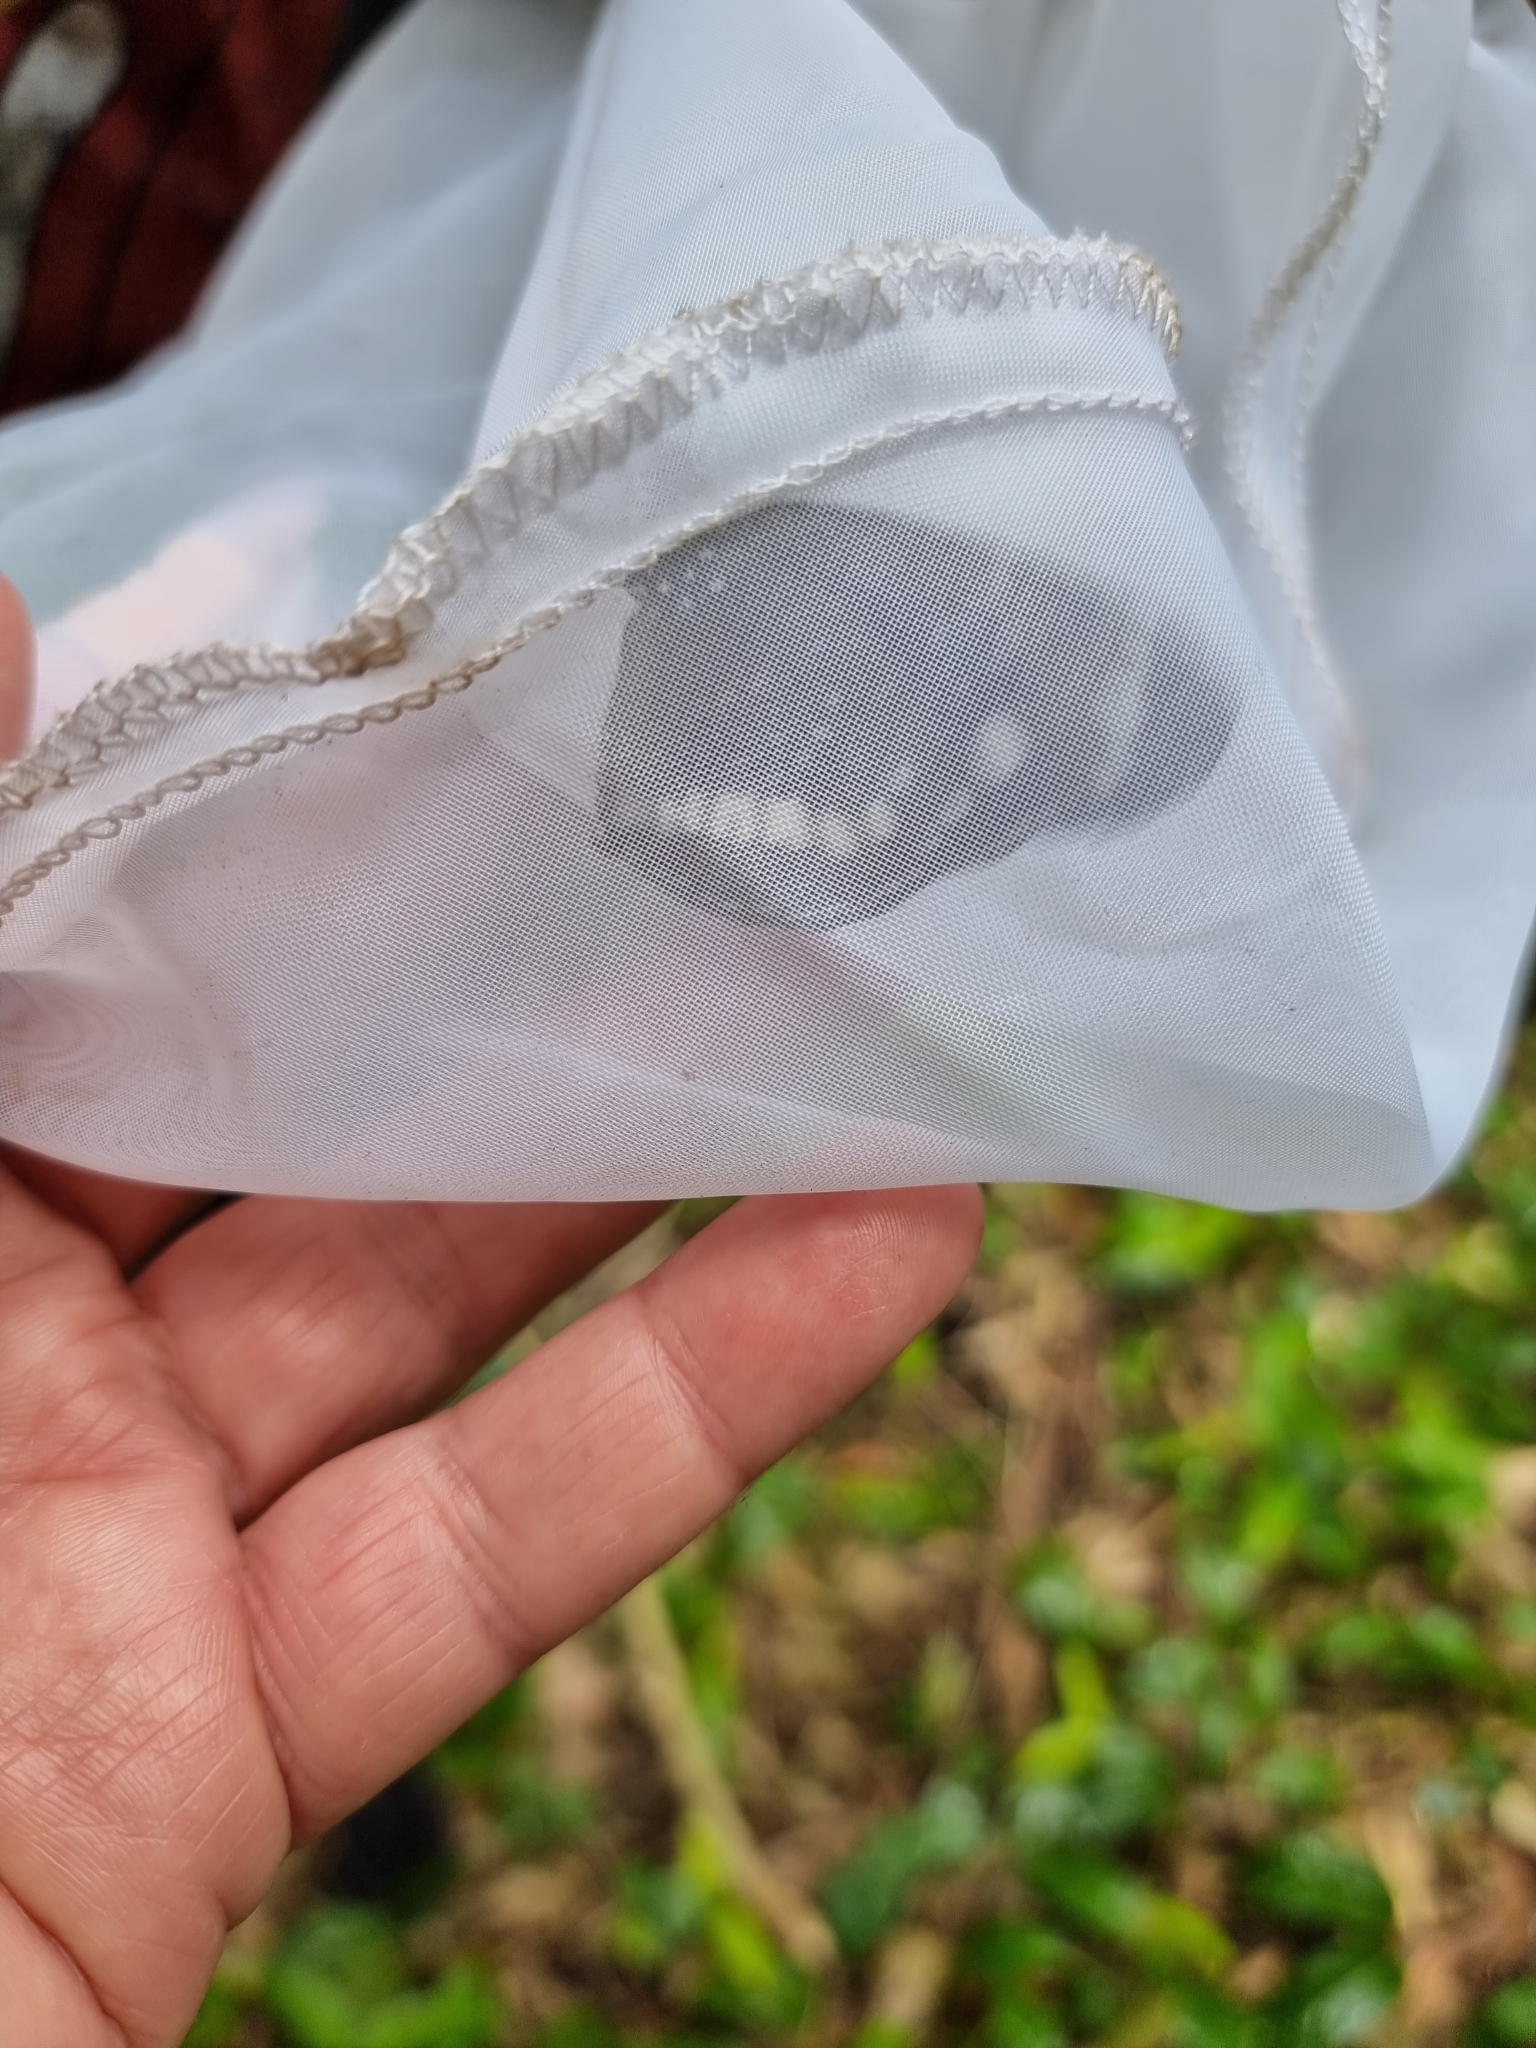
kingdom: Animalia
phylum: Arthropoda
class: Insecta
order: Lepidoptera
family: Nymphalidae
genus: Euploea
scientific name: Euploea core
